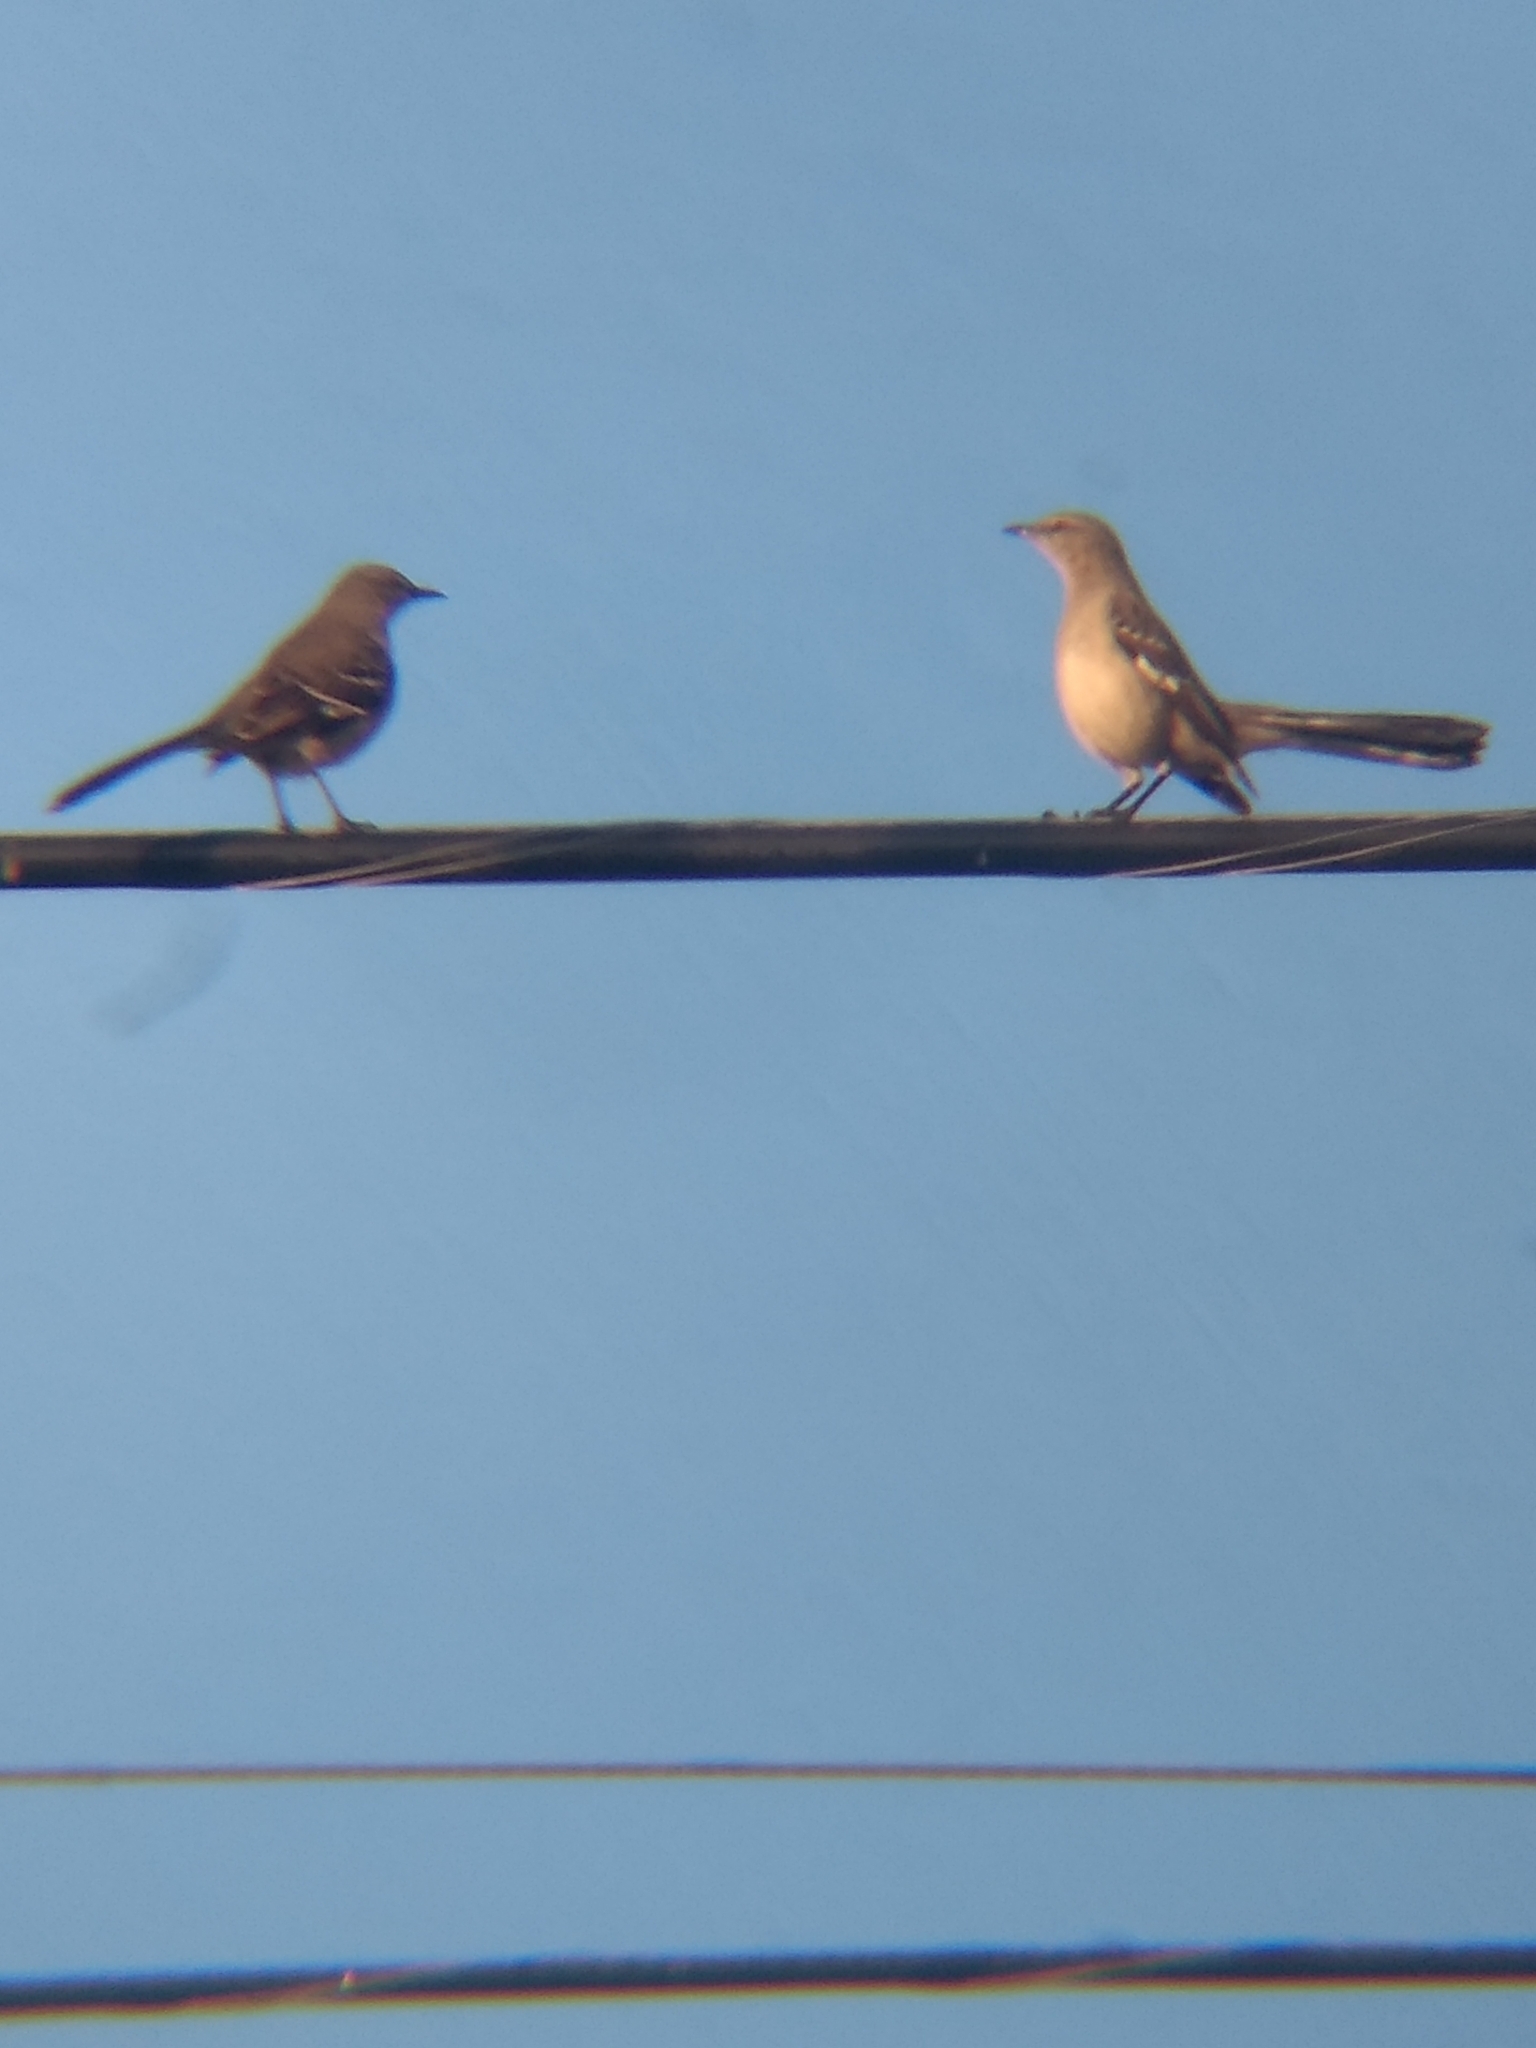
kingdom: Animalia
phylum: Chordata
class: Aves
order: Passeriformes
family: Mimidae
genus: Mimus
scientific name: Mimus polyglottos
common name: Northern mockingbird
